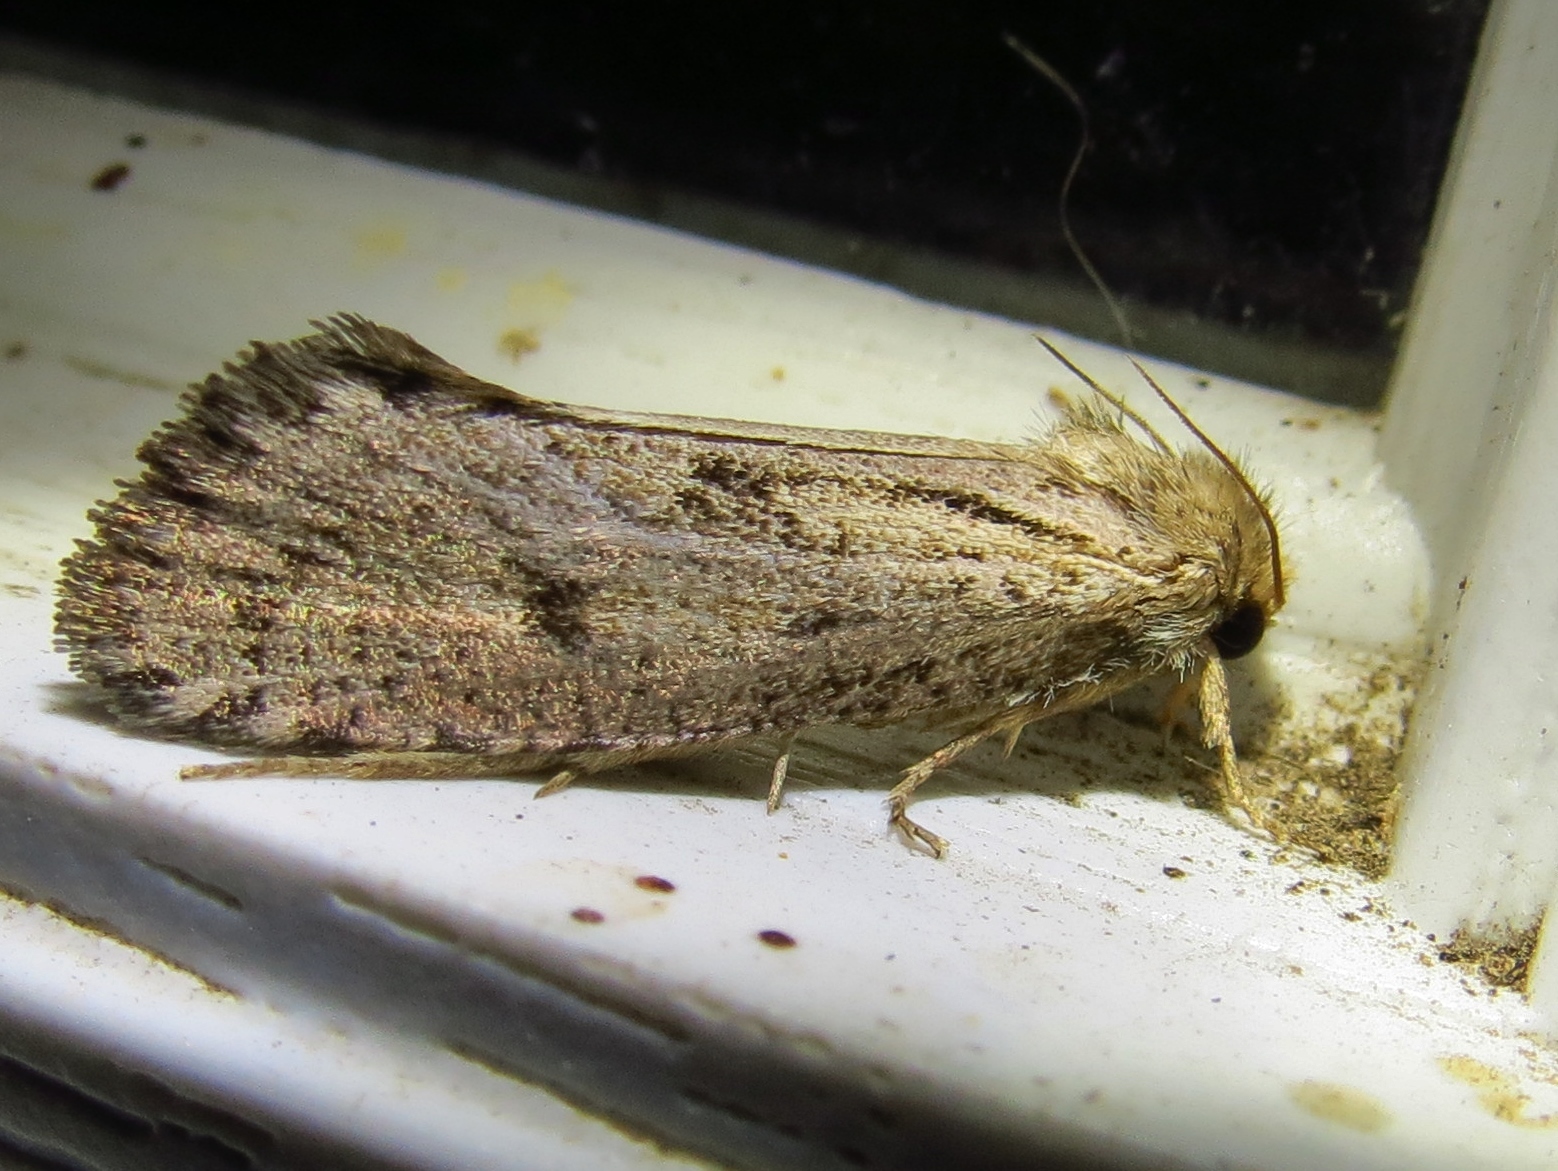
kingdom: Animalia
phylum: Arthropoda
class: Insecta
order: Lepidoptera
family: Tineidae
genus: Acrolophus
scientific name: Acrolophus mortipennella
